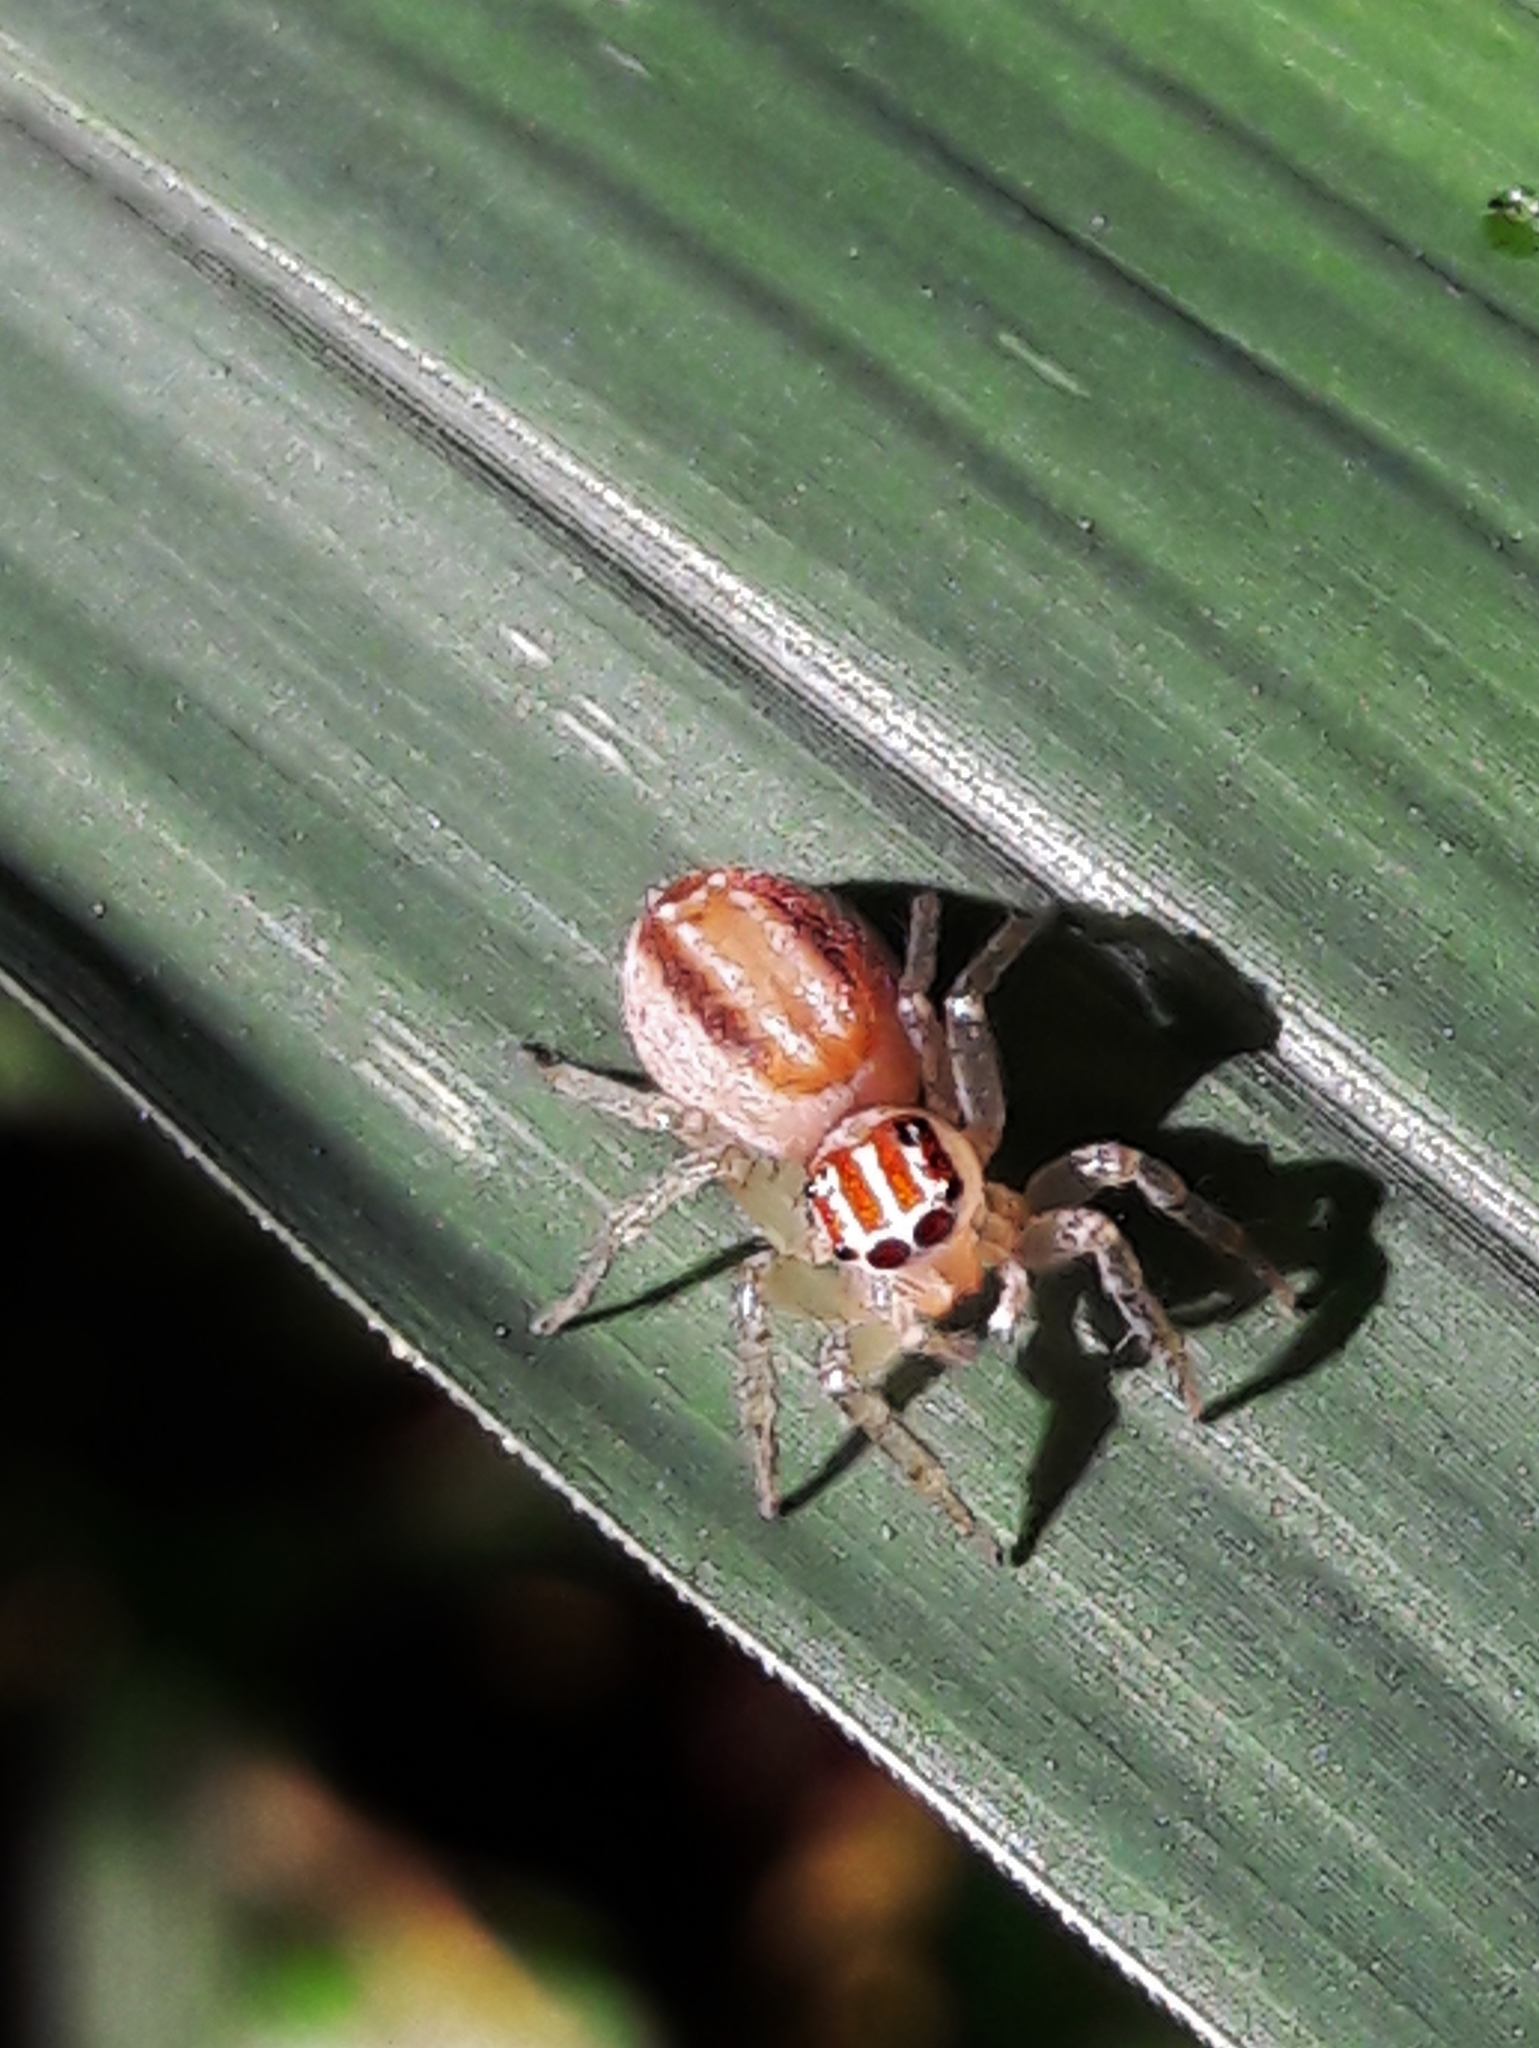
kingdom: Animalia
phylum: Arthropoda
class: Arachnida
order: Araneae
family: Salticidae
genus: Chira
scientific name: Chira simoni
